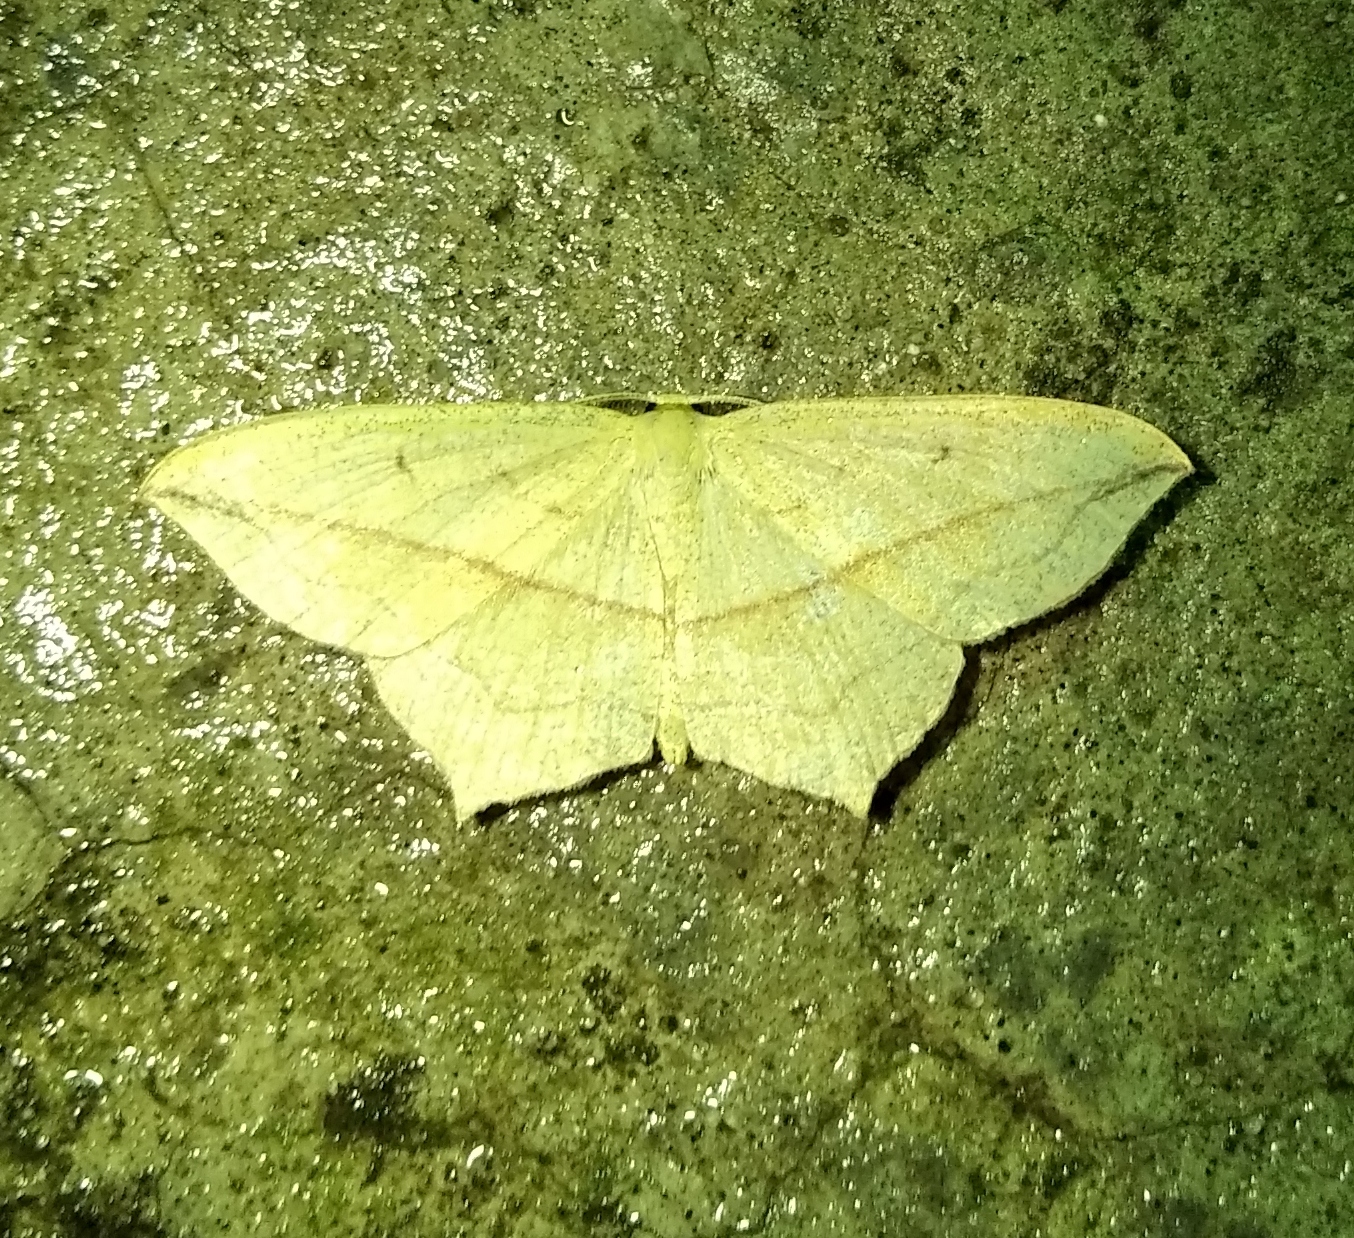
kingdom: Animalia
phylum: Arthropoda
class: Insecta
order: Lepidoptera
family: Geometridae
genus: Timandra
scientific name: Timandra comae
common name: Blood-vein
